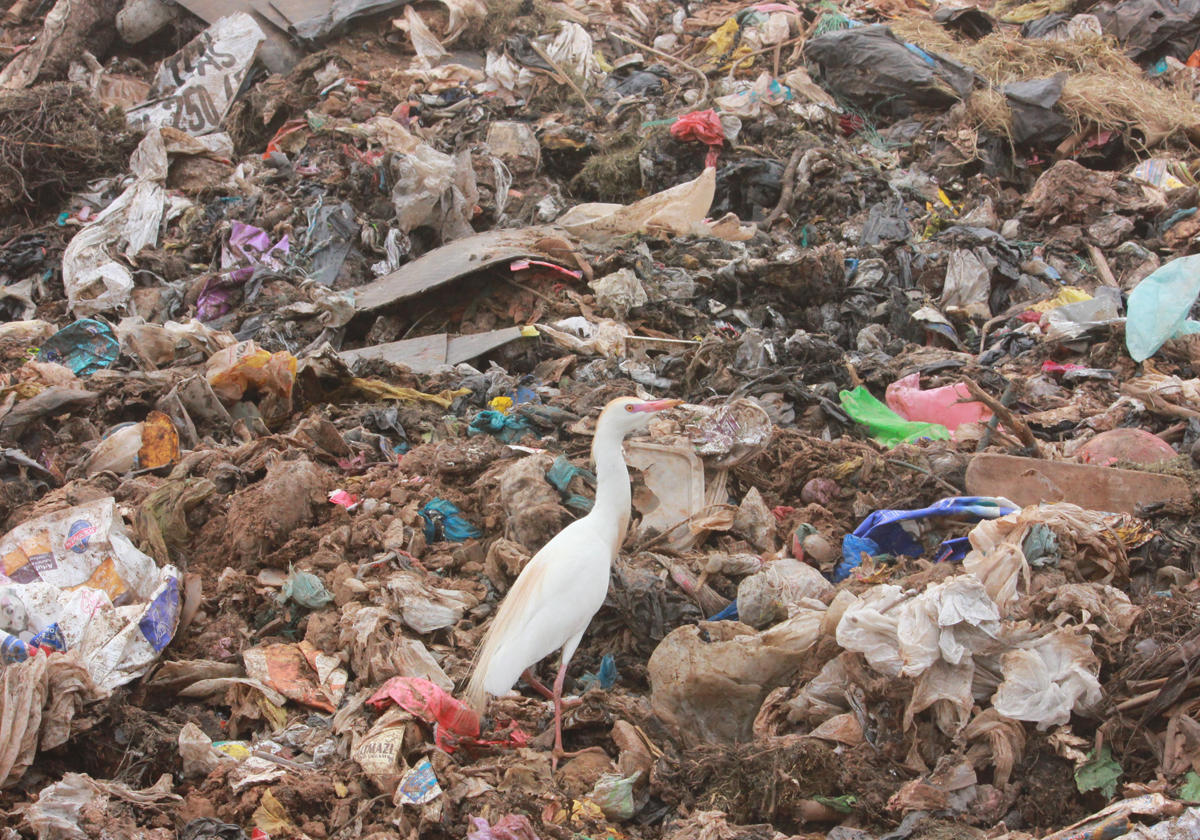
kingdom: Animalia
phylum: Chordata
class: Aves
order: Pelecaniformes
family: Ardeidae
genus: Bubulcus
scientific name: Bubulcus ibis
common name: Cattle egret
